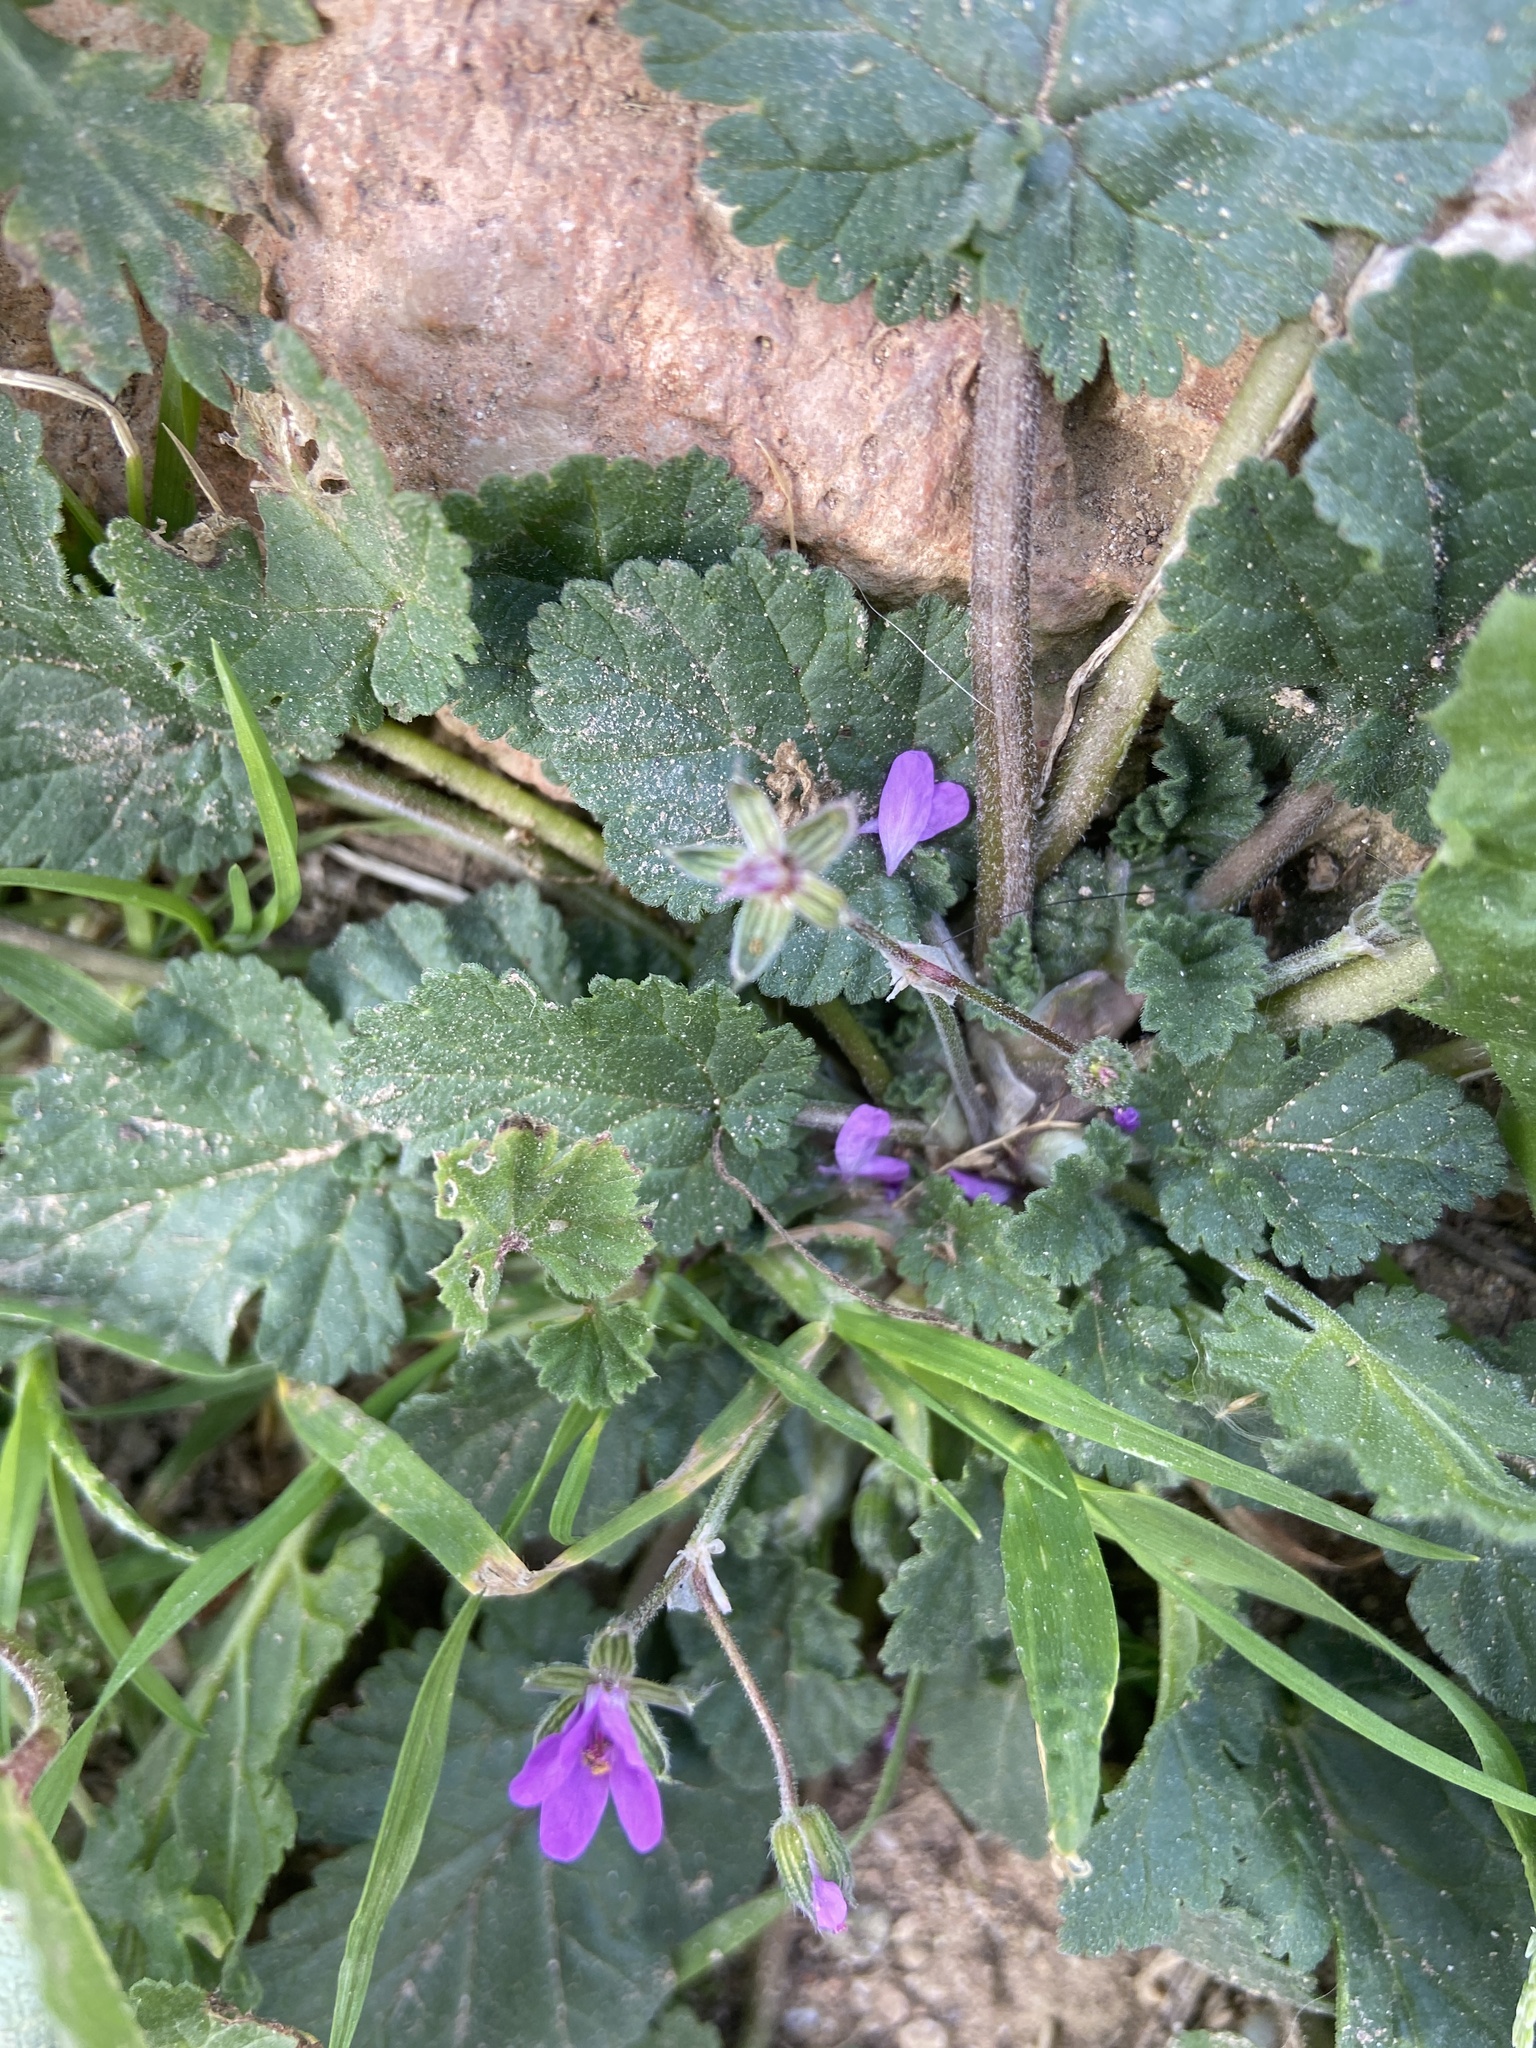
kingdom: Plantae
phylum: Tracheophyta
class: Magnoliopsida
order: Geraniales
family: Geraniaceae
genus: Erodium
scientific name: Erodium malacoides
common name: Soft stork's-bill
